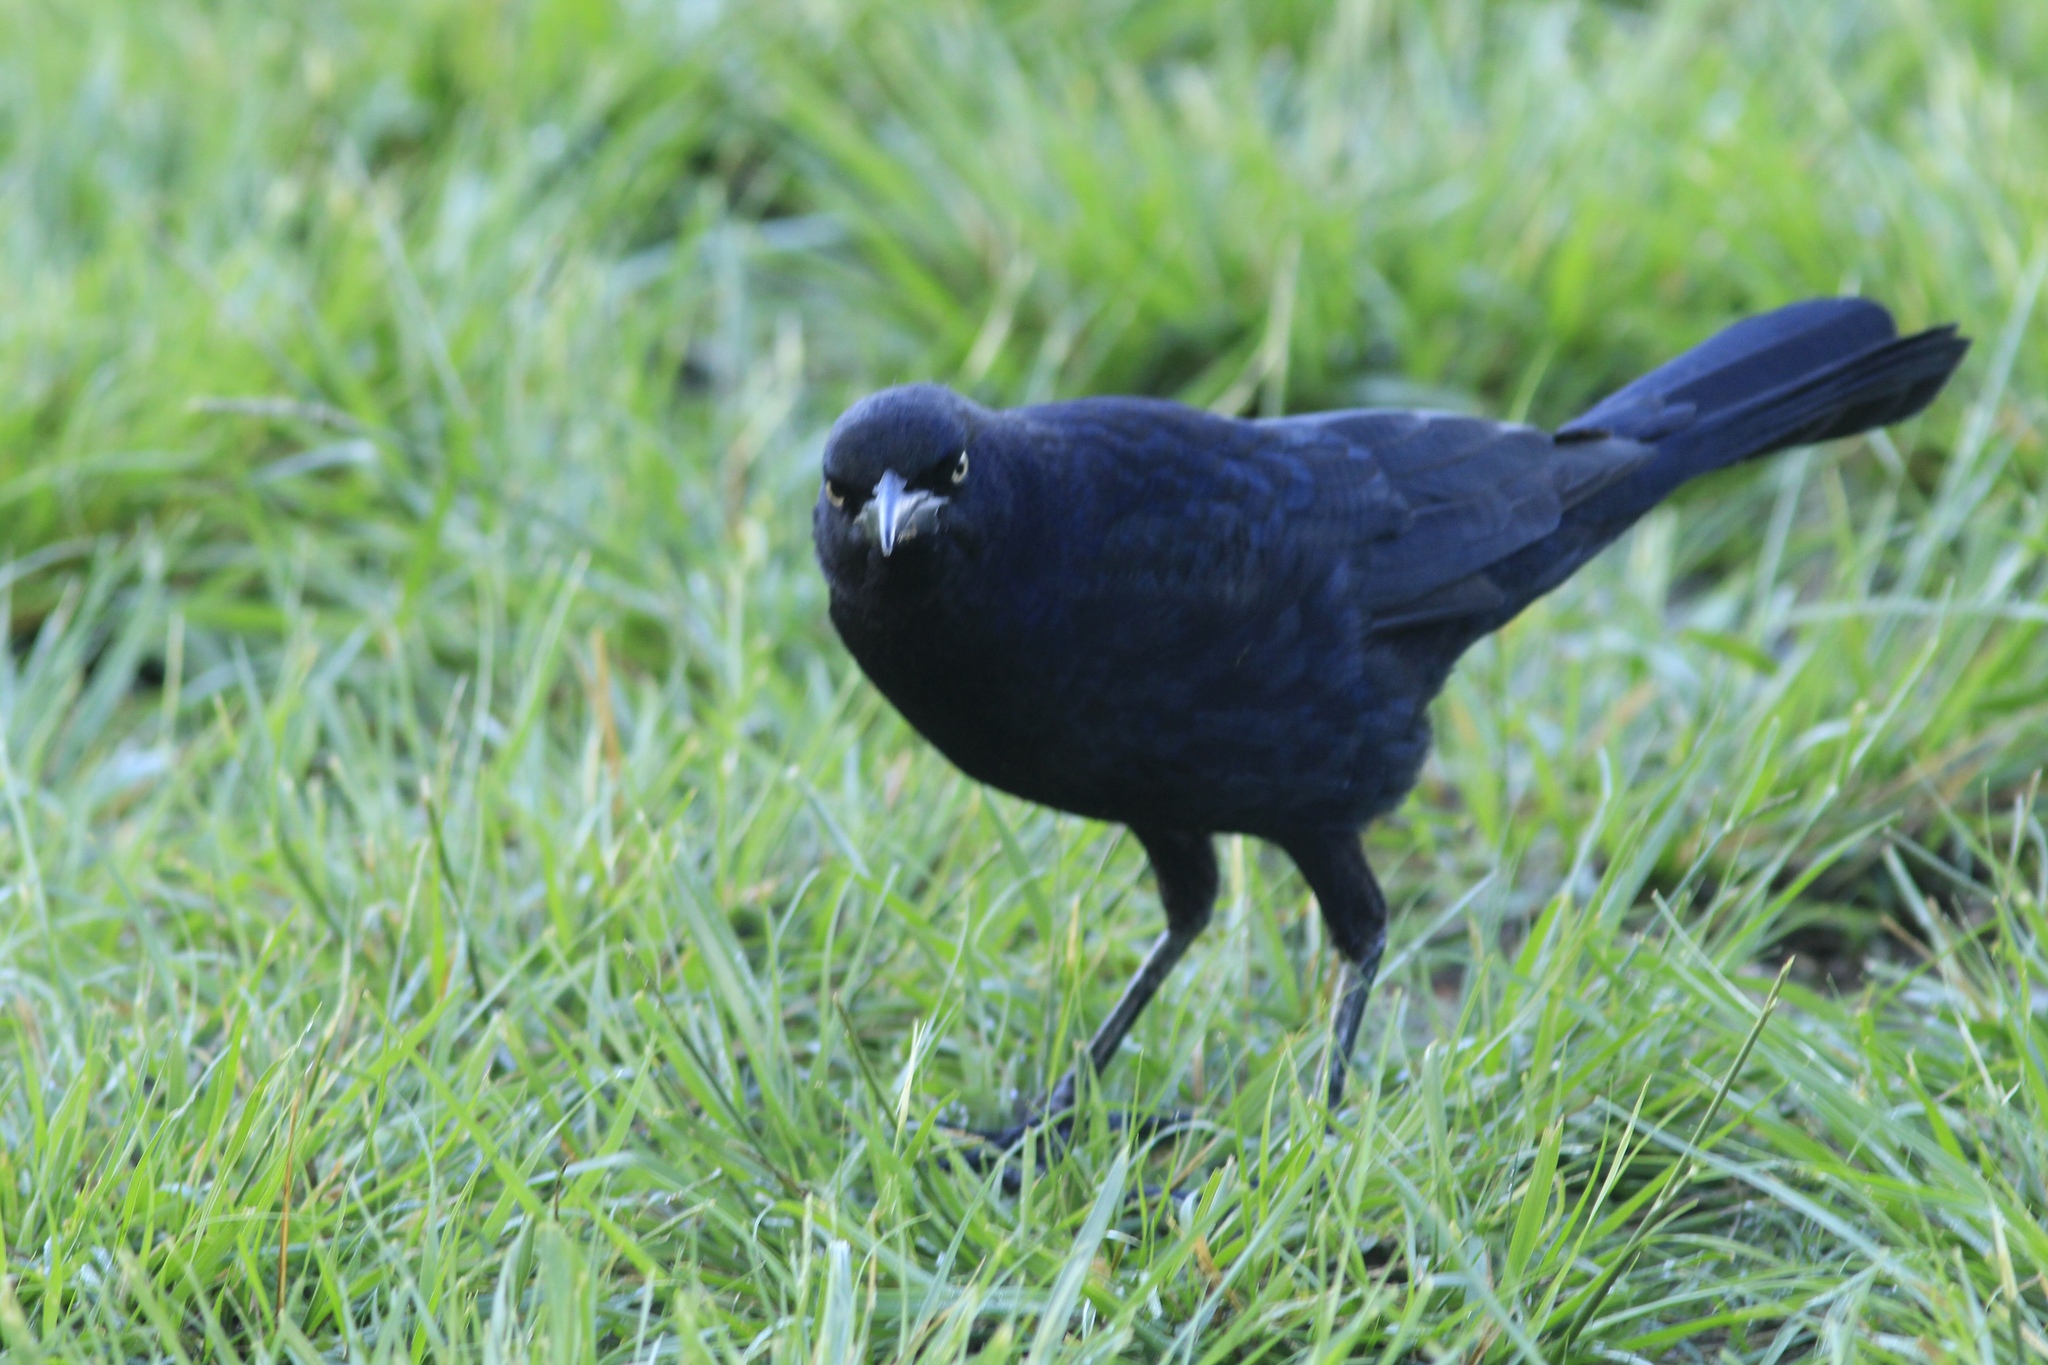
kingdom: Animalia
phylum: Chordata
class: Aves
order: Passeriformes
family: Icteridae
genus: Quiscalus
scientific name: Quiscalus mexicanus
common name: Great-tailed grackle
